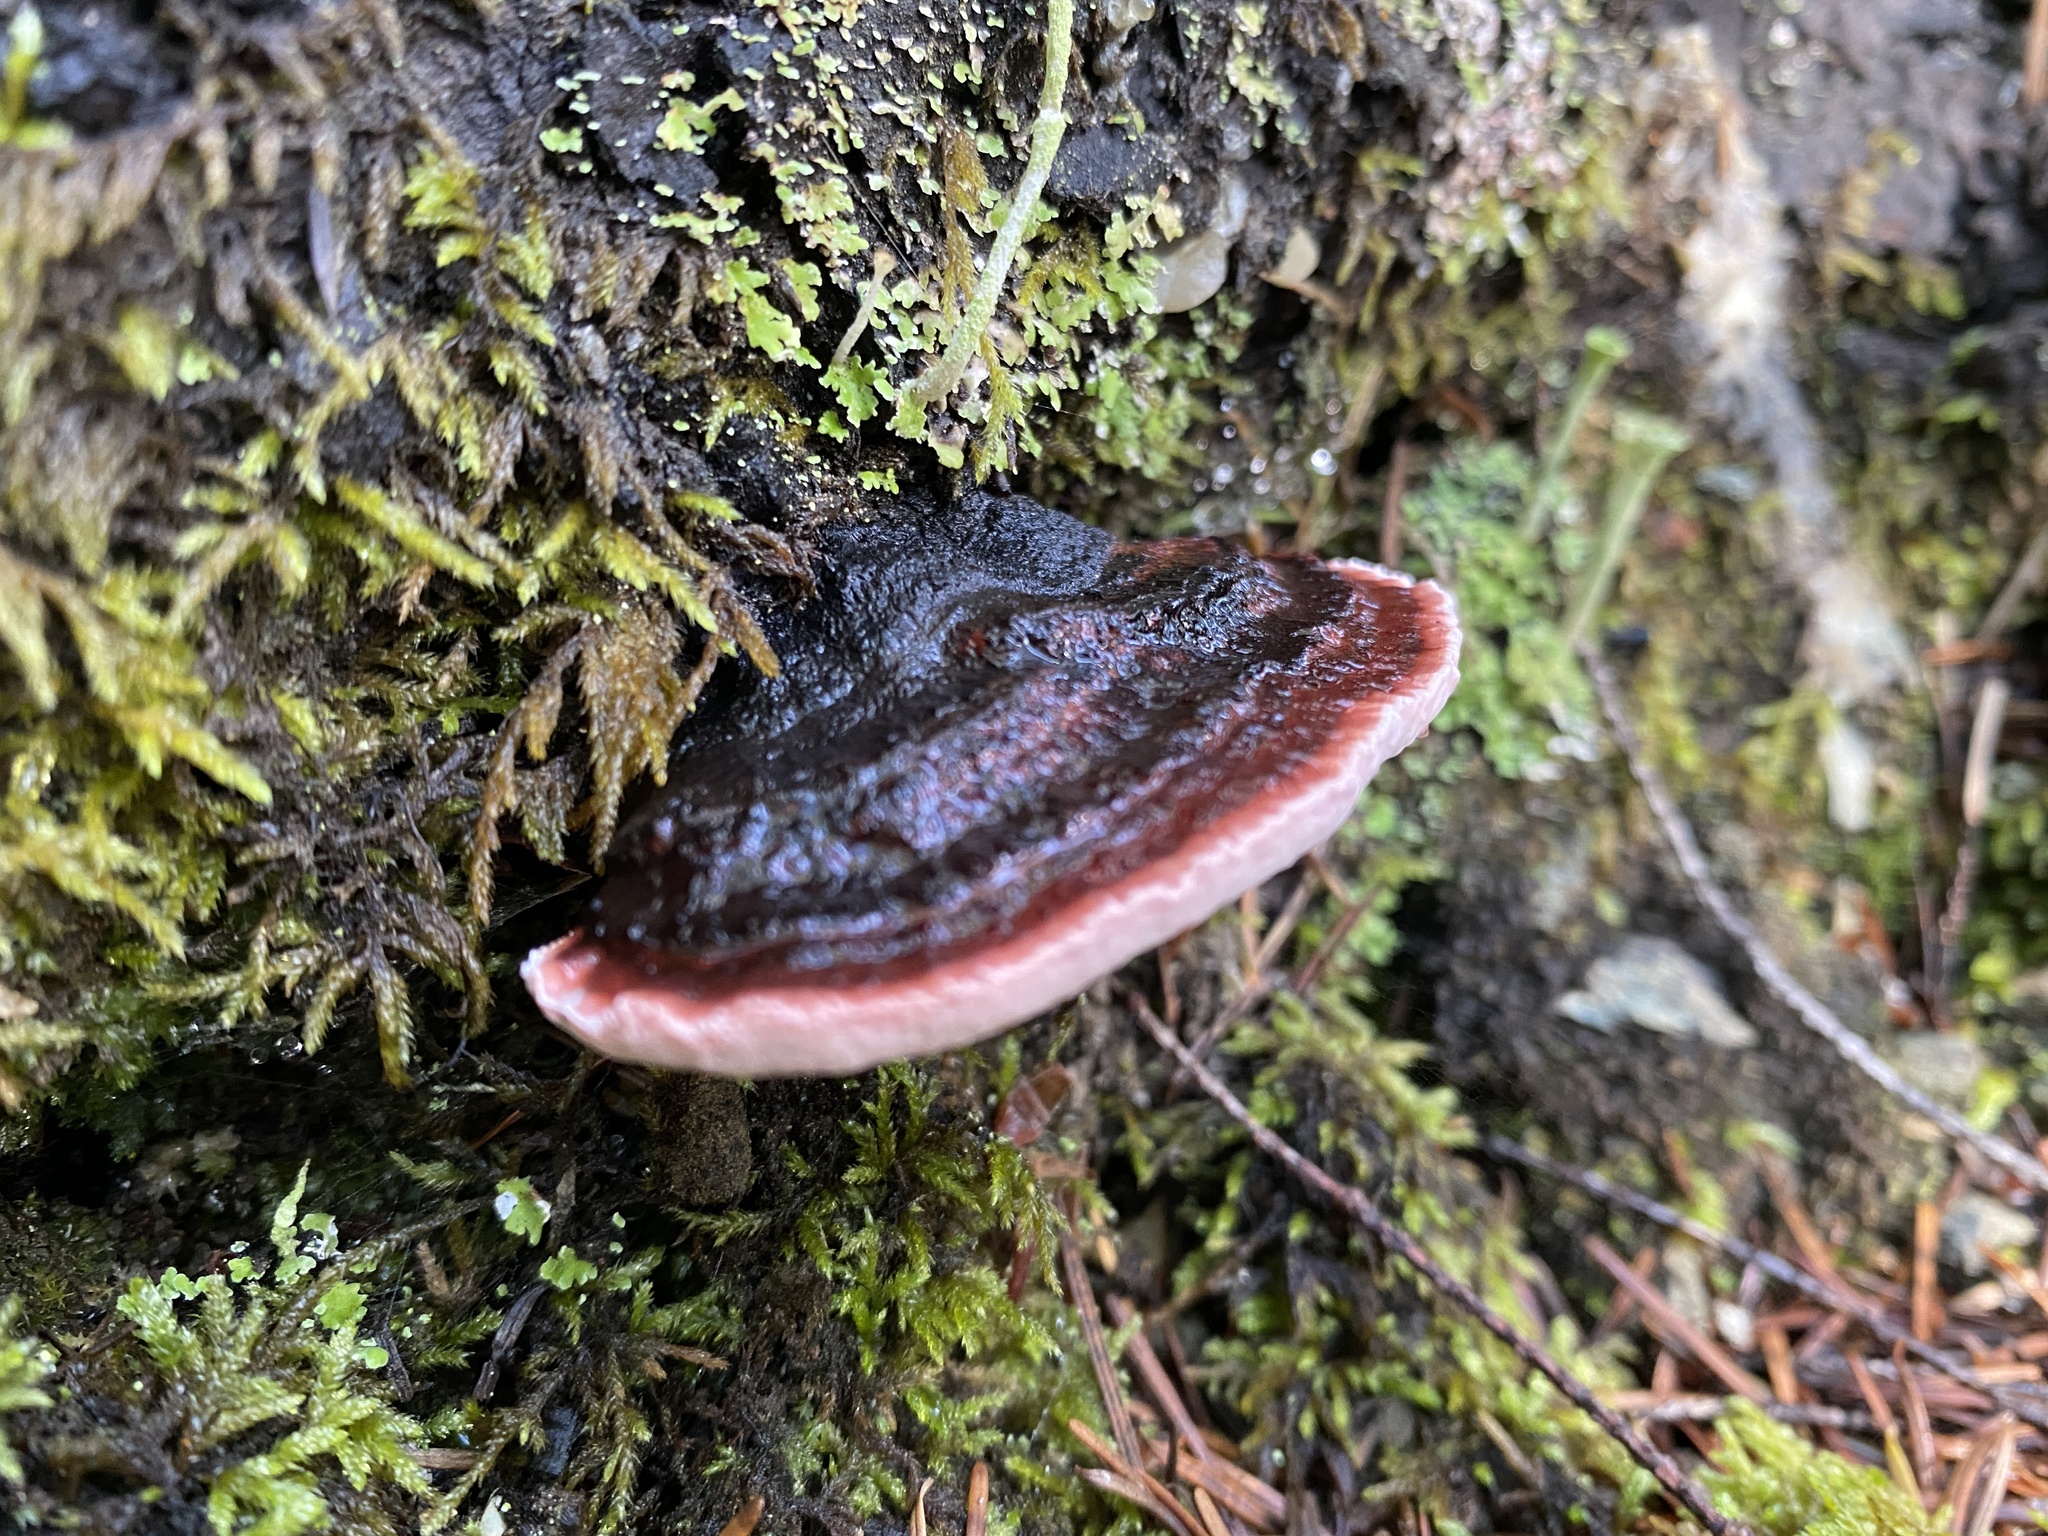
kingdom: Fungi
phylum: Basidiomycota
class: Agaricomycetes
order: Polyporales
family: Fomitopsidaceae
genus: Rhodofomes
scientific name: Rhodofomes cajanderi
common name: Rosy conk
